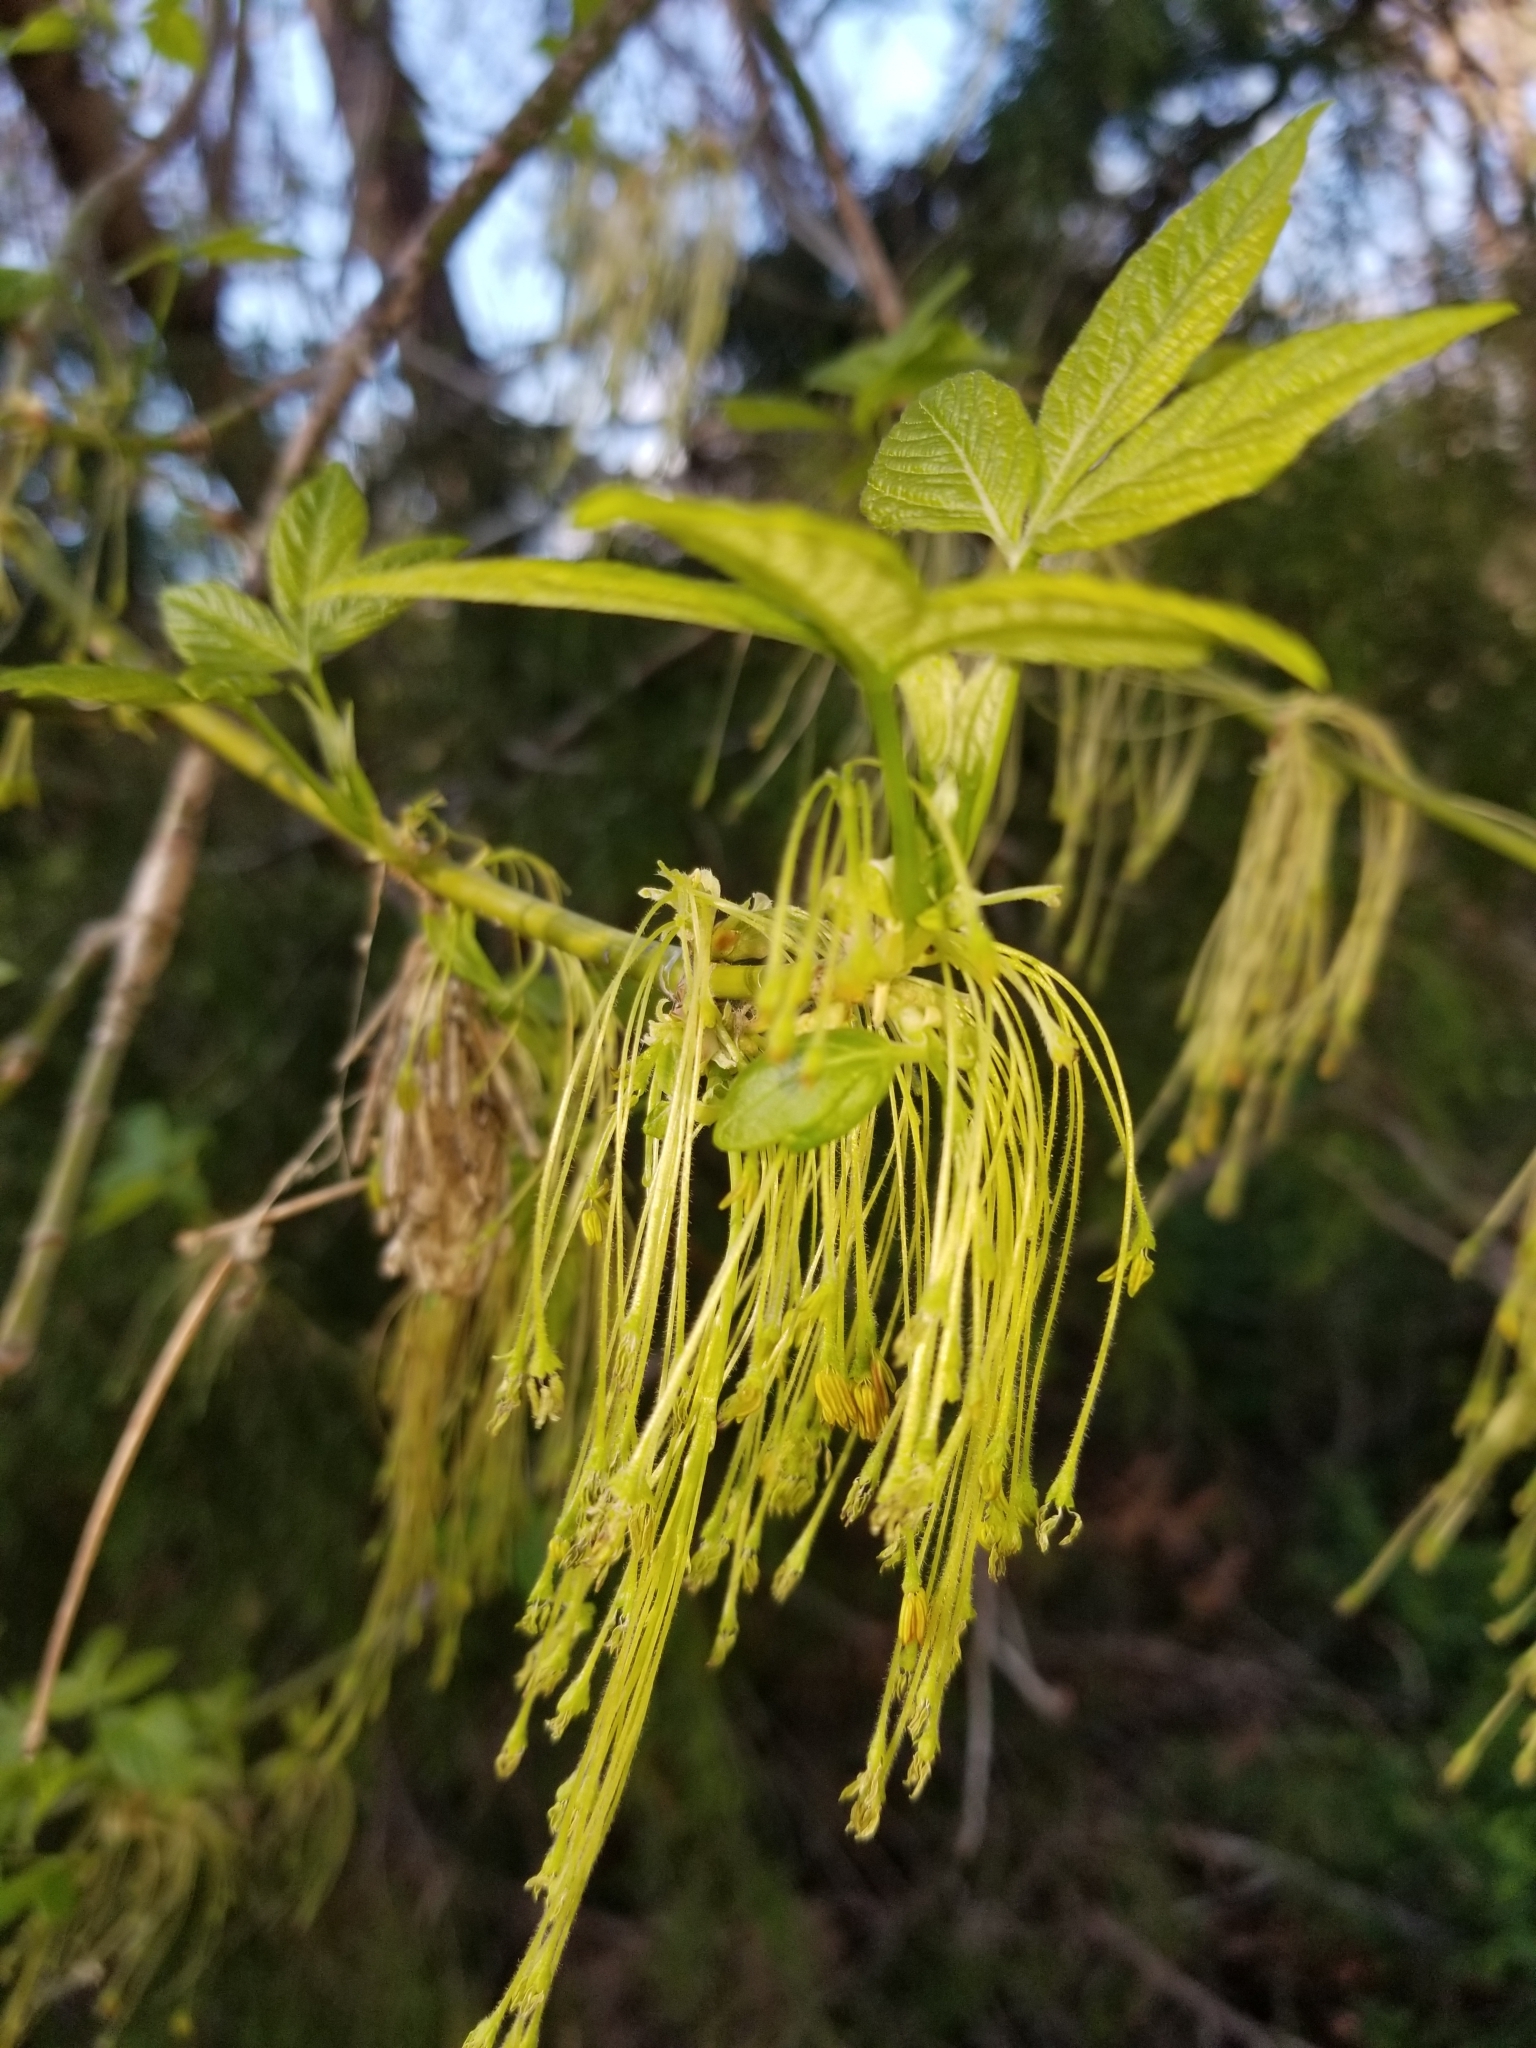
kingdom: Plantae
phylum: Tracheophyta
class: Magnoliopsida
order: Sapindales
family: Sapindaceae
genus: Acer
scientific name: Acer negundo
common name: Ashleaf maple
